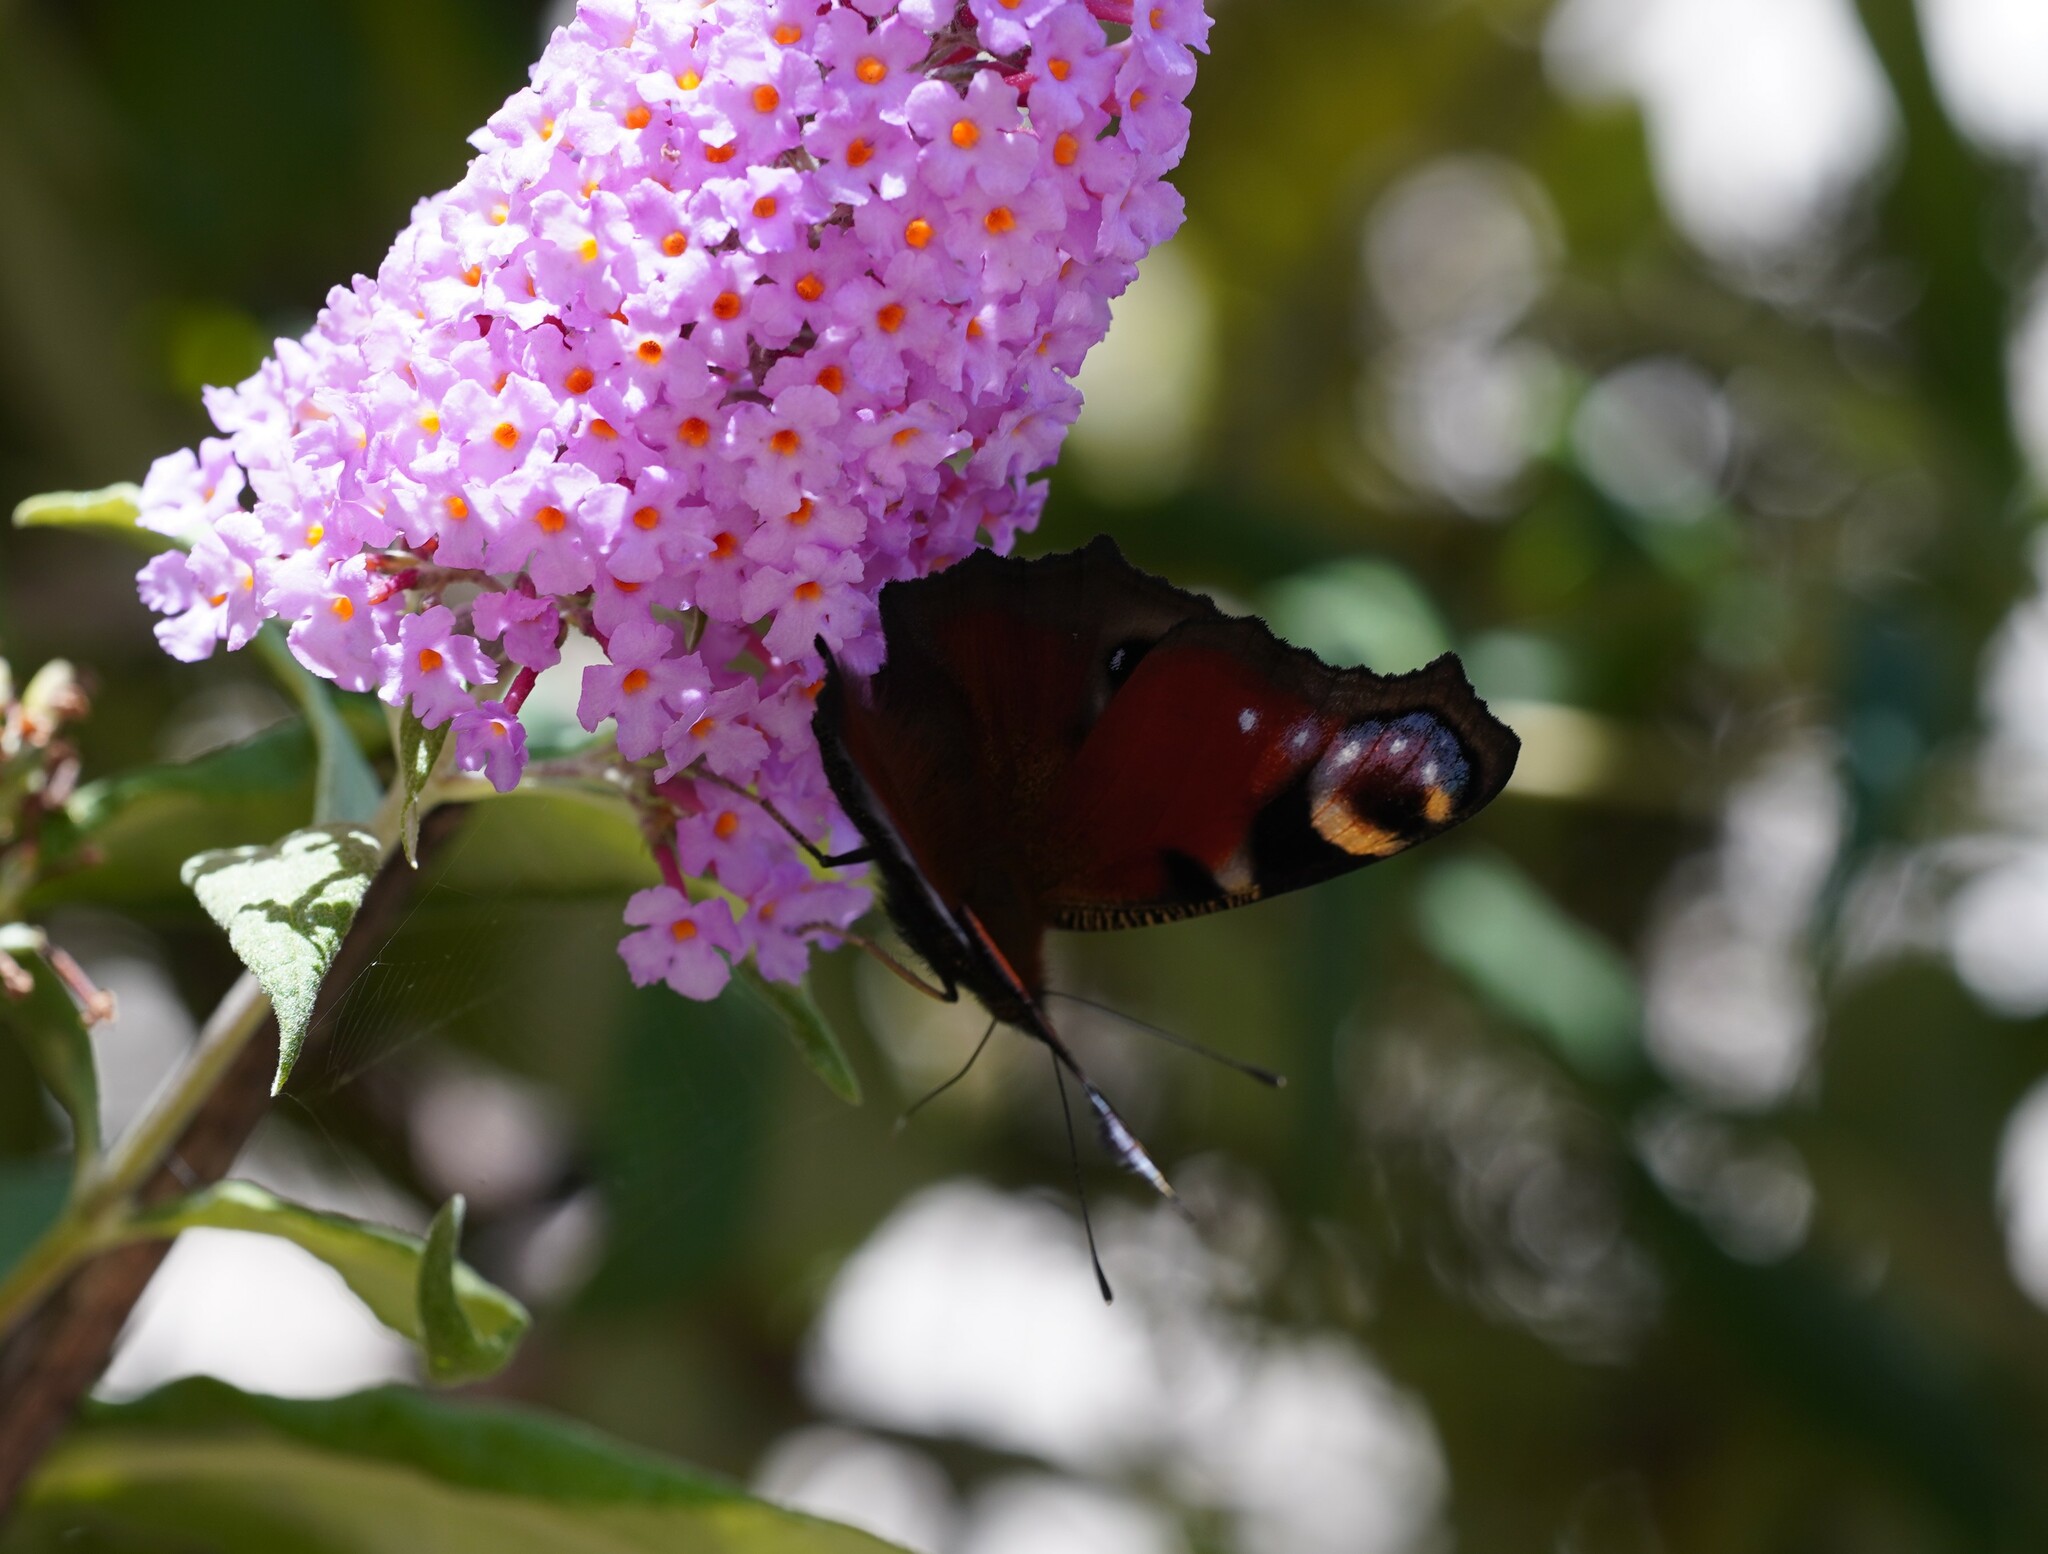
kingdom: Animalia
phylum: Arthropoda
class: Insecta
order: Lepidoptera
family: Nymphalidae
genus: Aglais
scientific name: Aglais io
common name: Peacock
